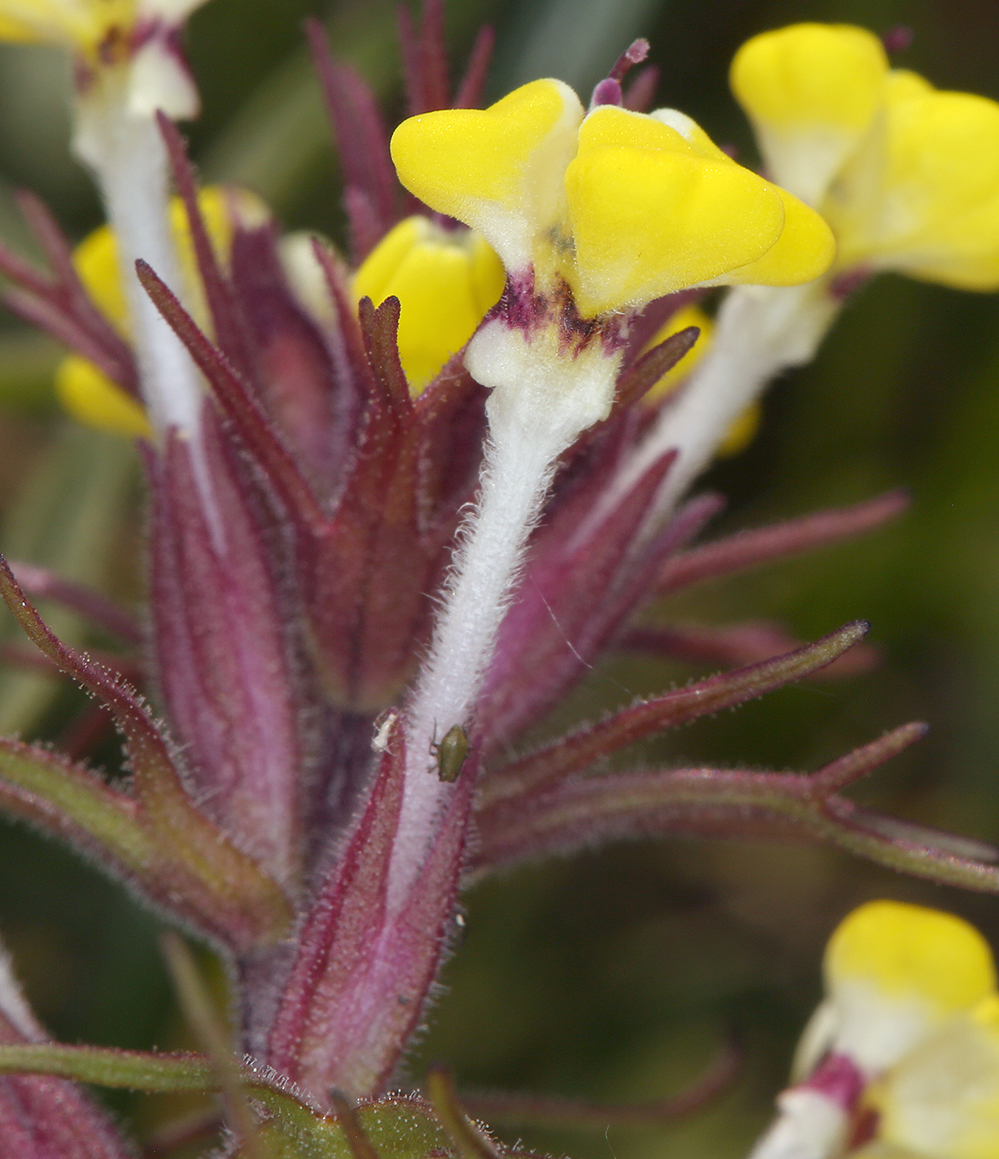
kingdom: Plantae
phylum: Tracheophyta
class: Magnoliopsida
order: Lamiales
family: Orobanchaceae
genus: Triphysaria
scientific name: Triphysaria eriantha
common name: Johnny-tuck
